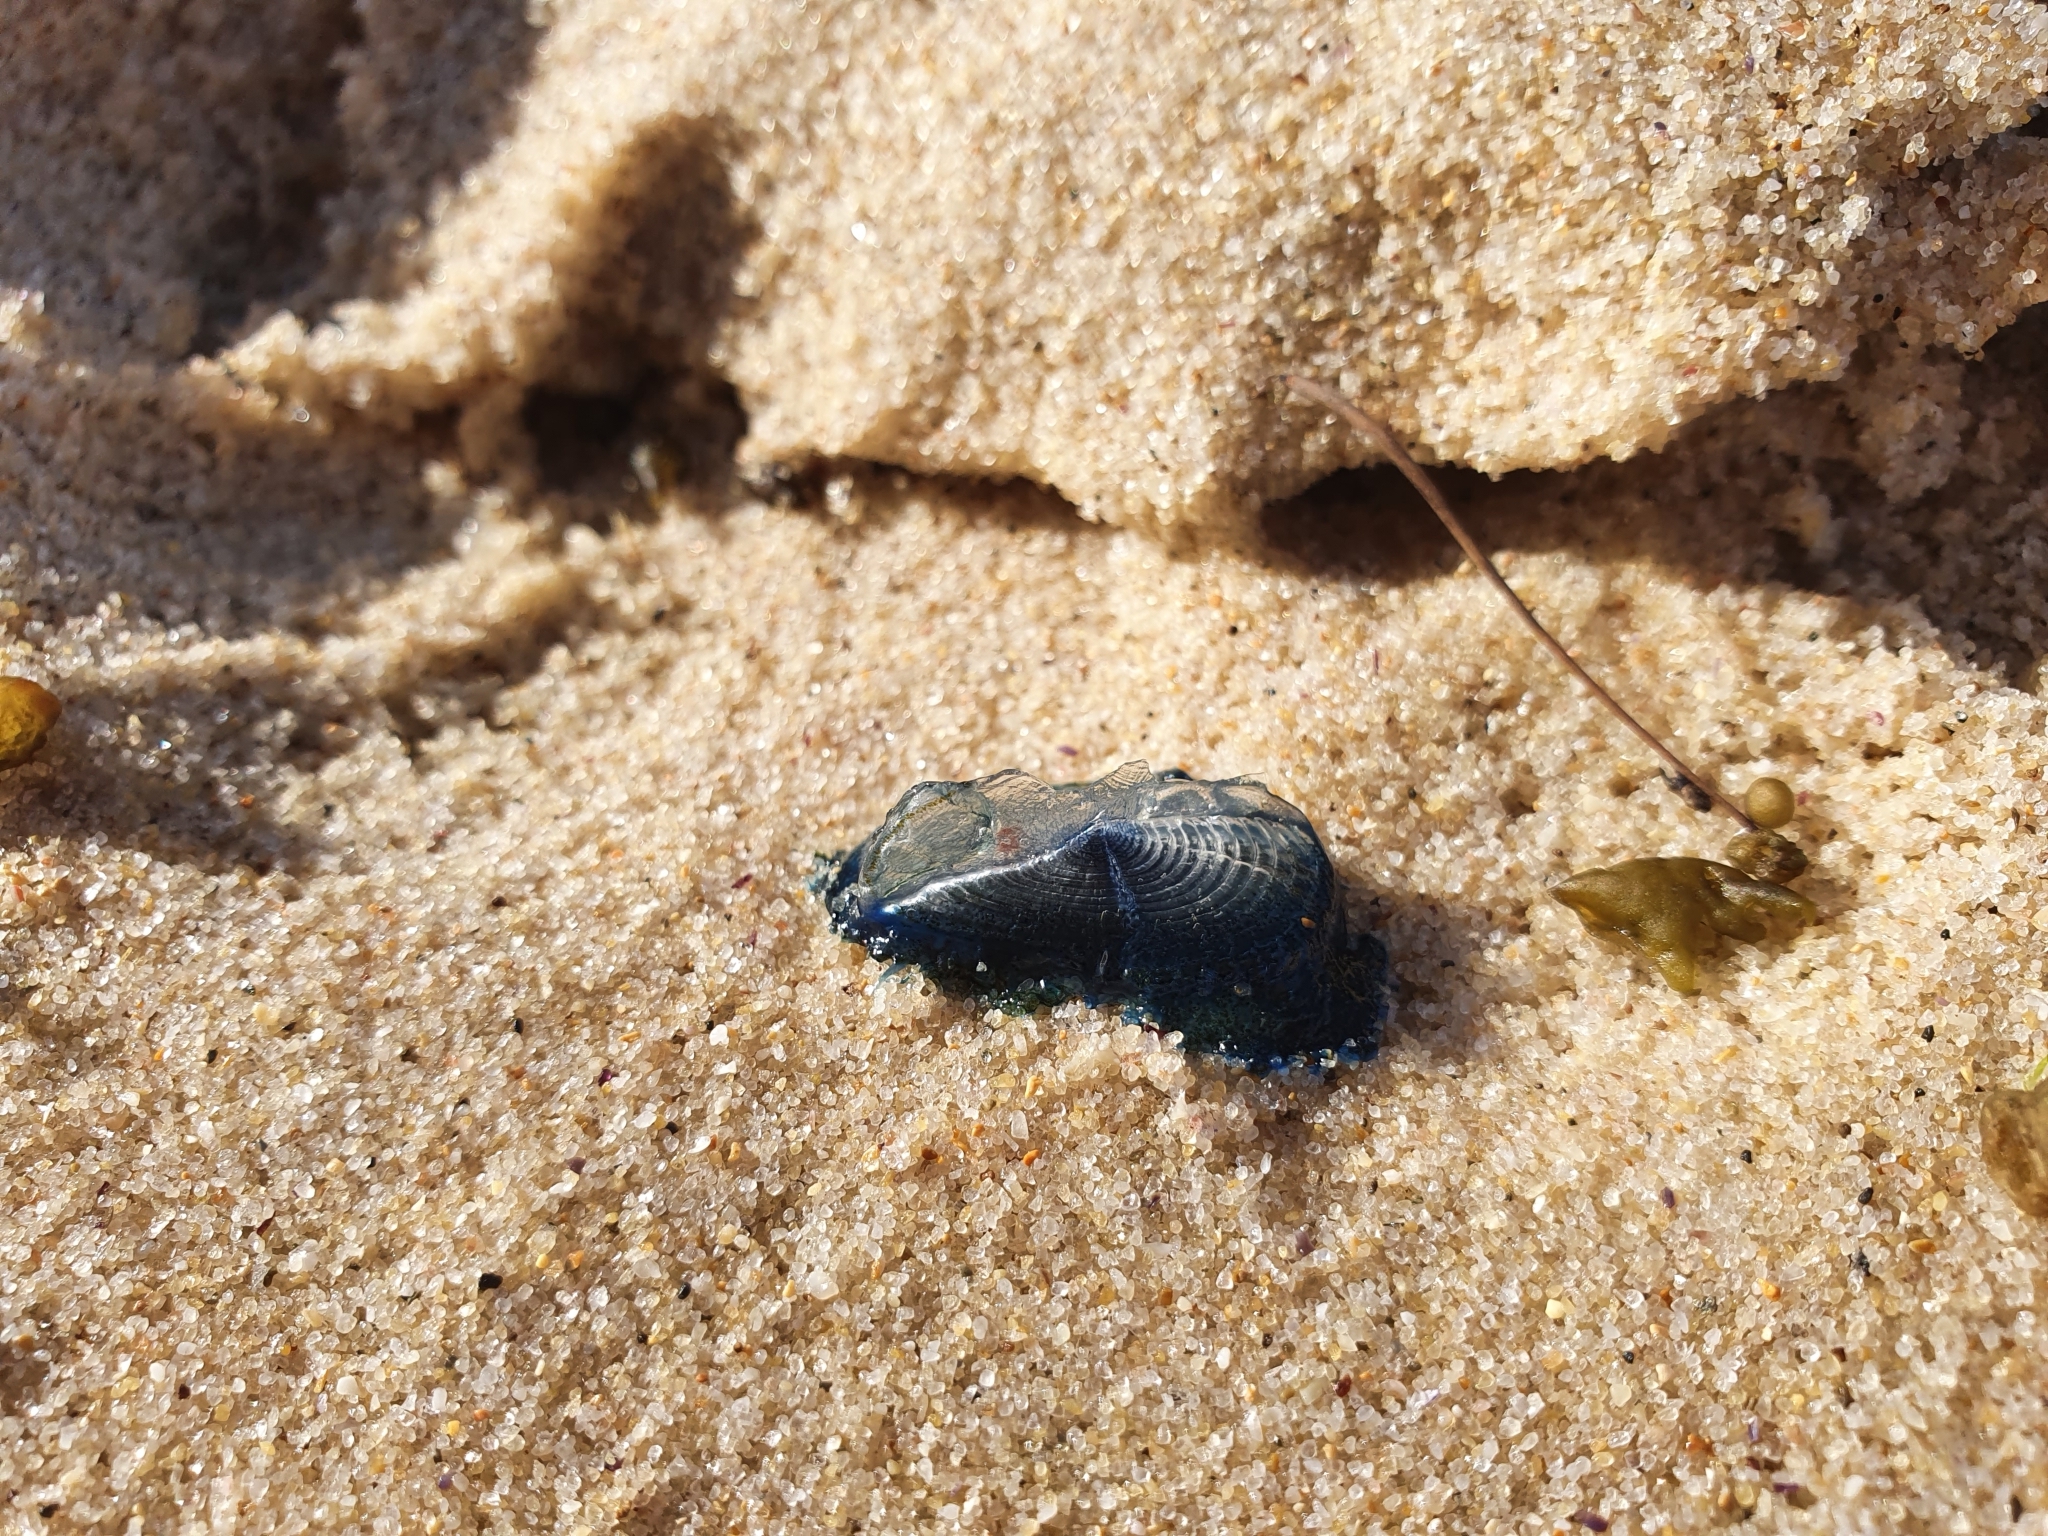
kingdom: Animalia
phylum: Cnidaria
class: Hydrozoa
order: Anthoathecata
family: Porpitidae
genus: Velella
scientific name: Velella velella
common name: By-the-wind-sailor
